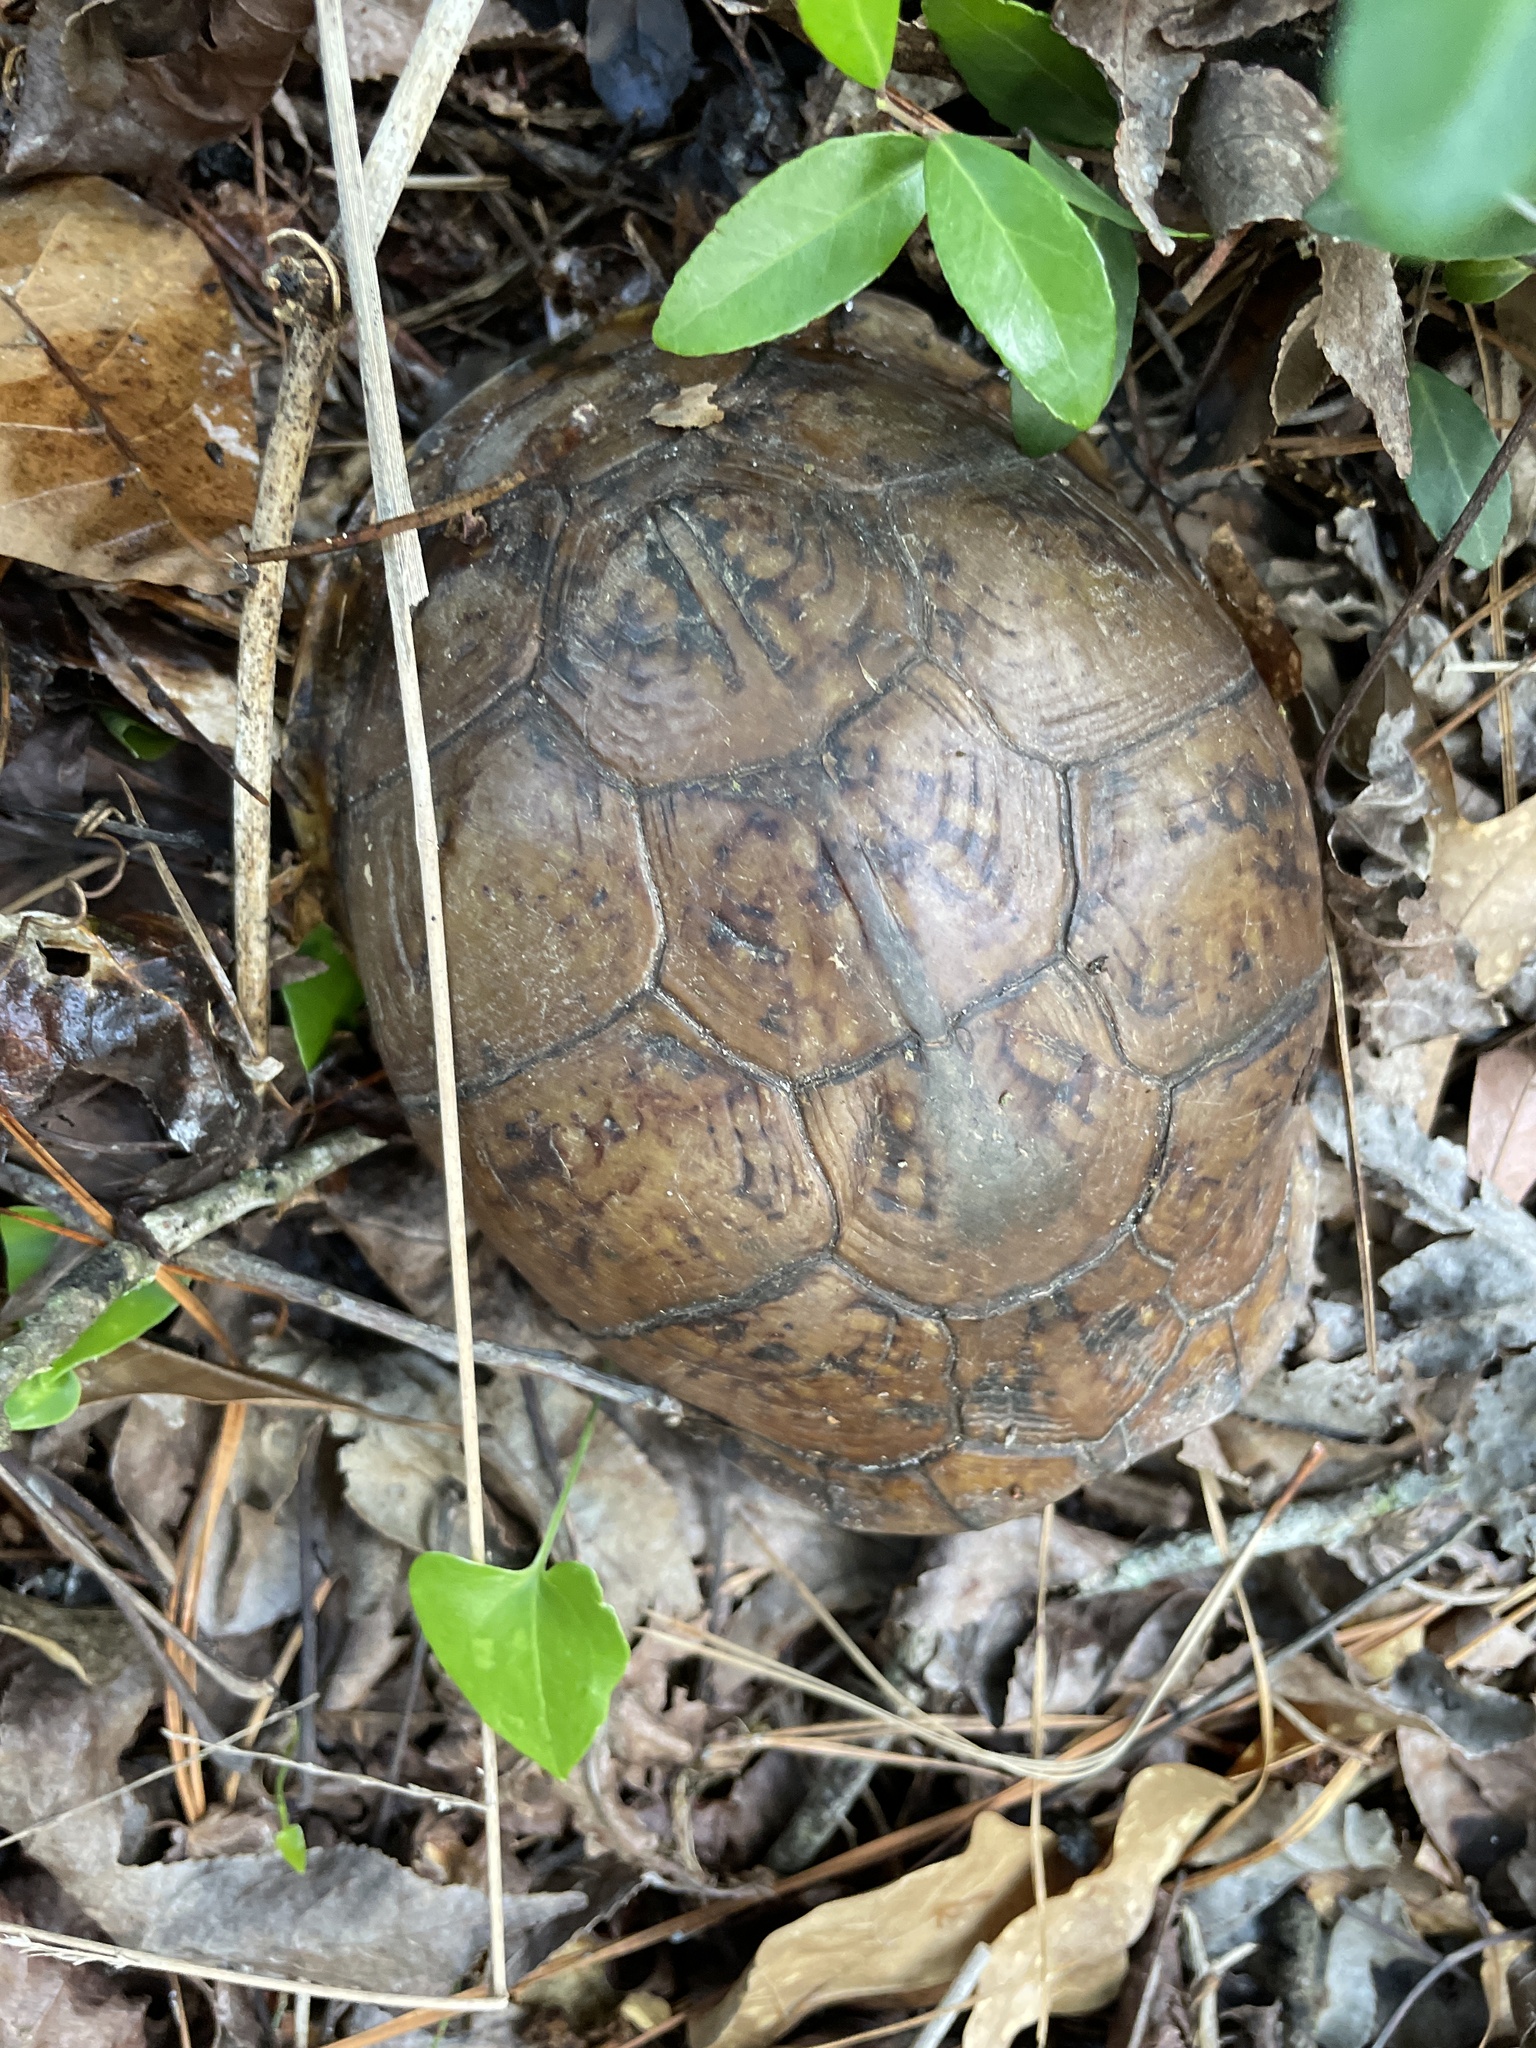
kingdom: Animalia
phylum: Chordata
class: Testudines
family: Emydidae
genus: Terrapene
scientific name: Terrapene carolina
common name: Common box turtle
